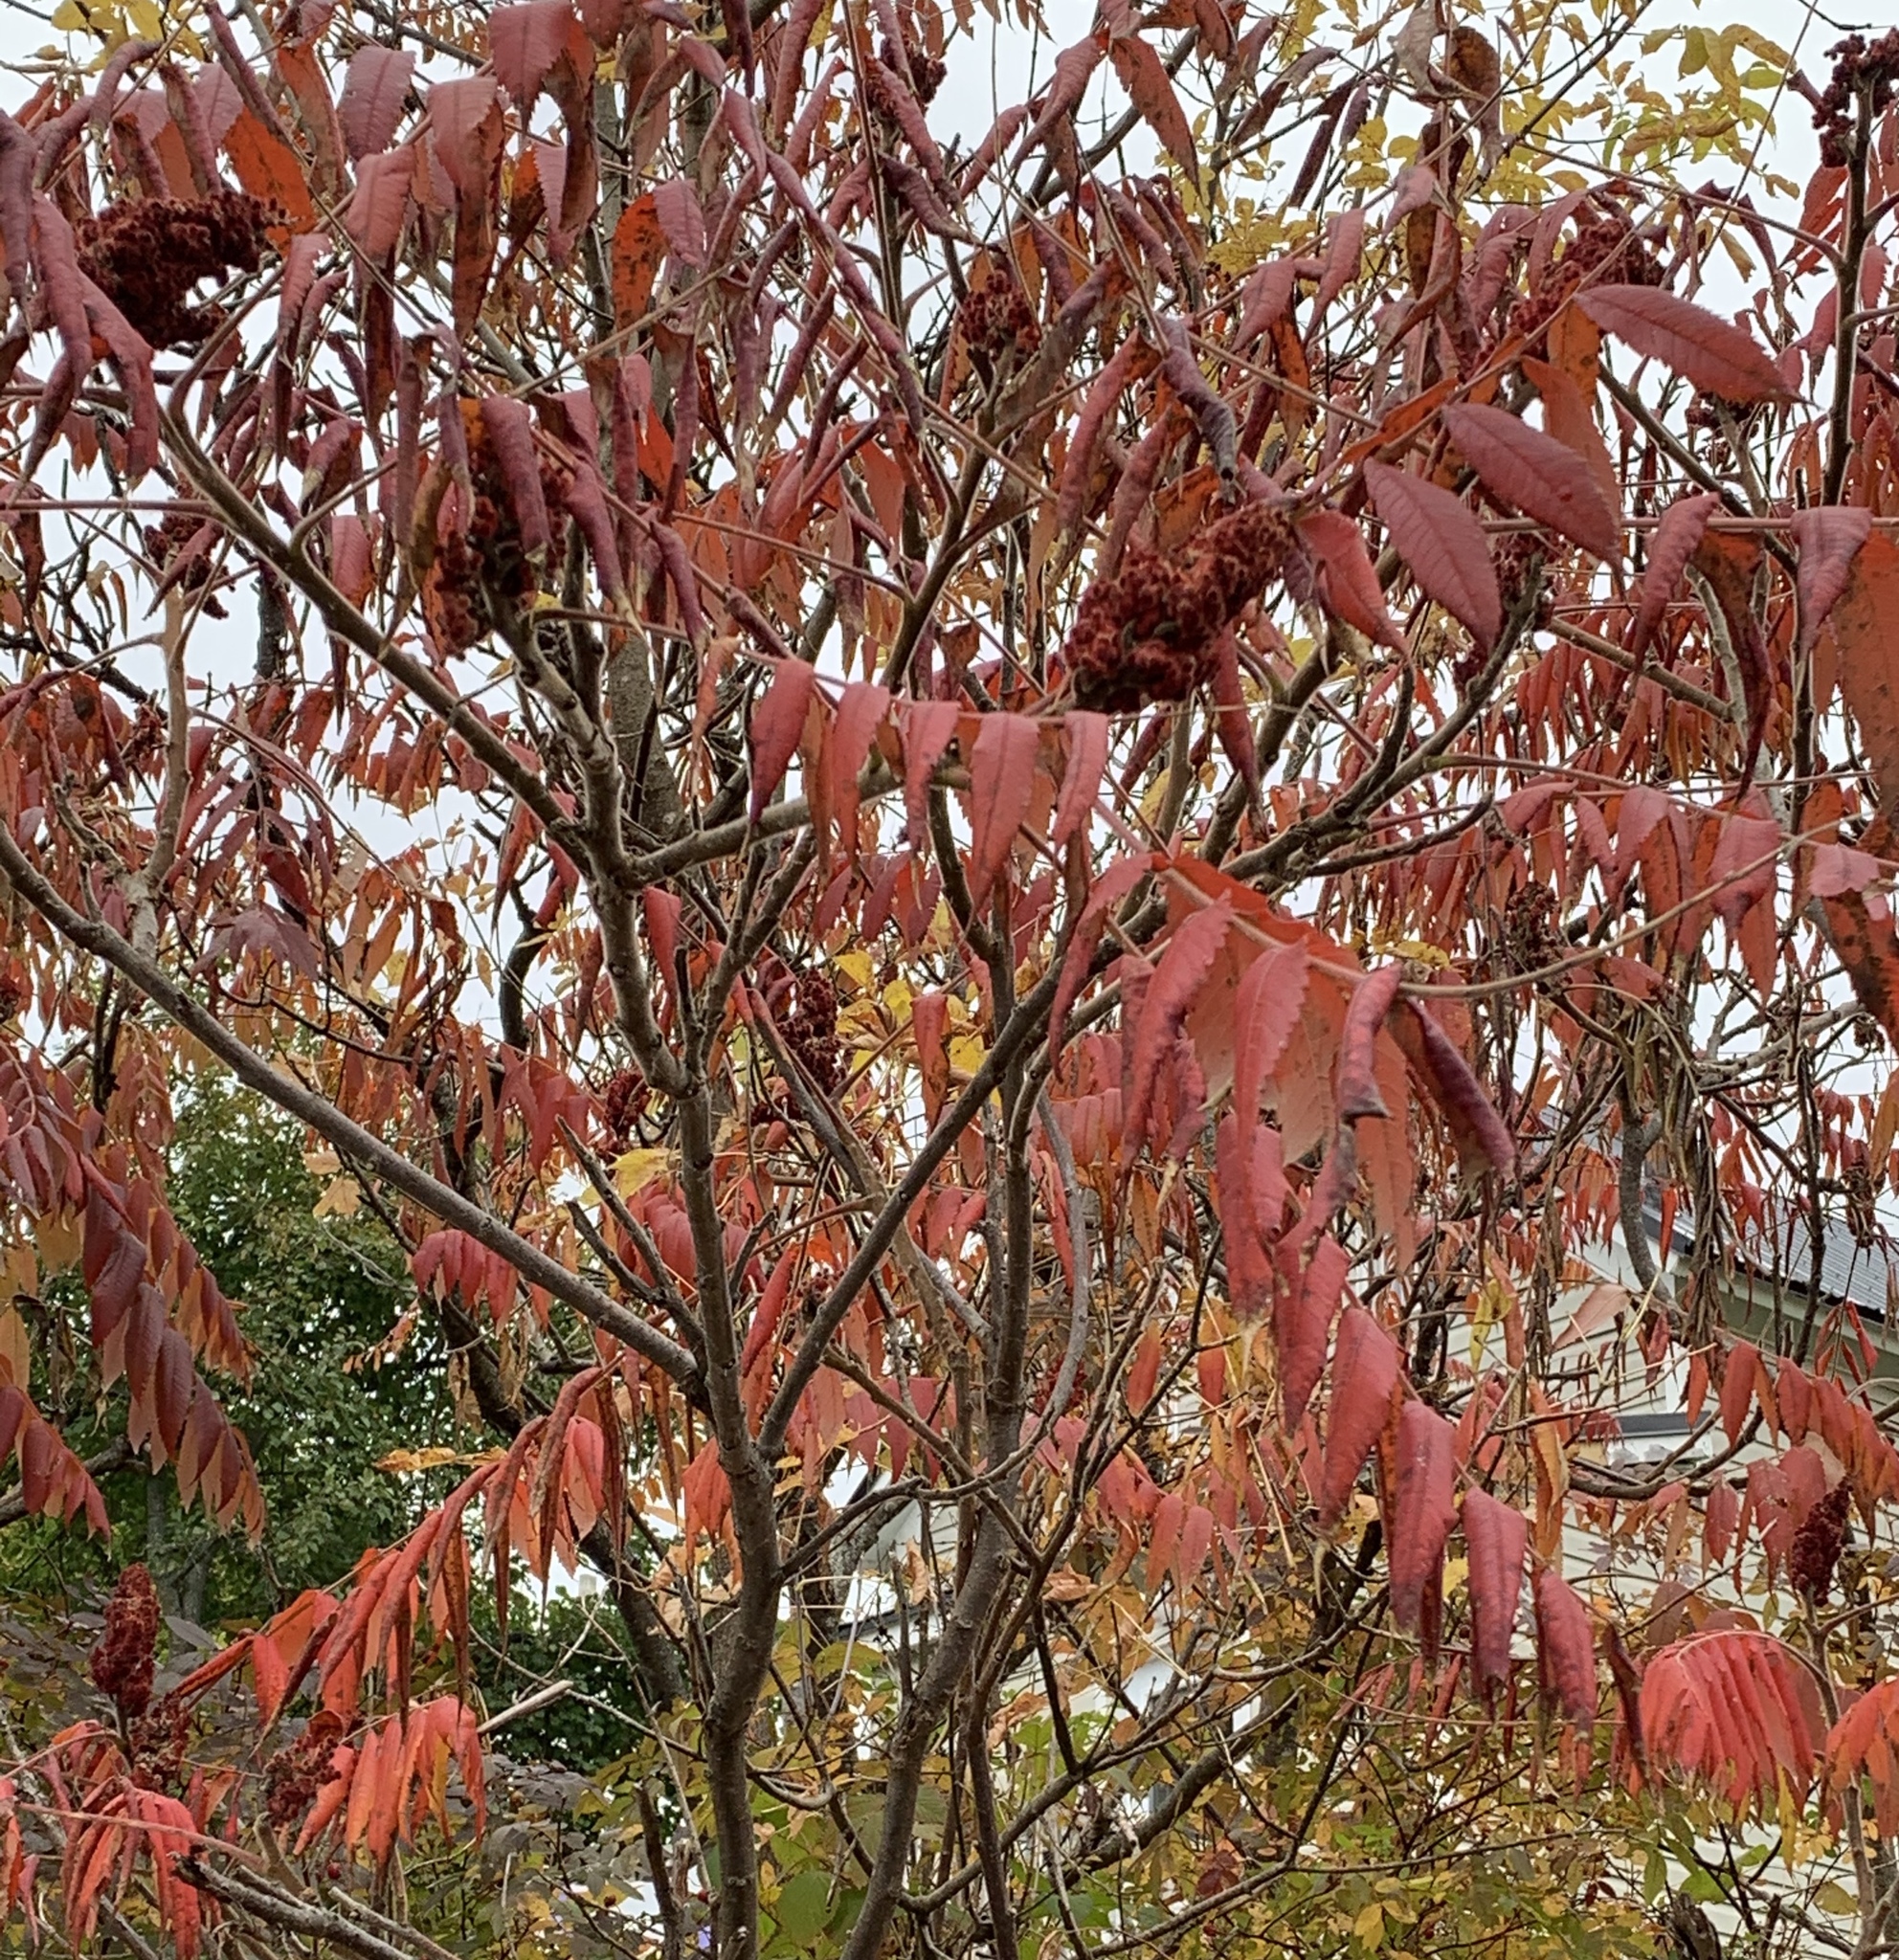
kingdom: Plantae
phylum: Tracheophyta
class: Magnoliopsida
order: Sapindales
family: Anacardiaceae
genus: Rhus
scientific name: Rhus typhina
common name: Staghorn sumac
